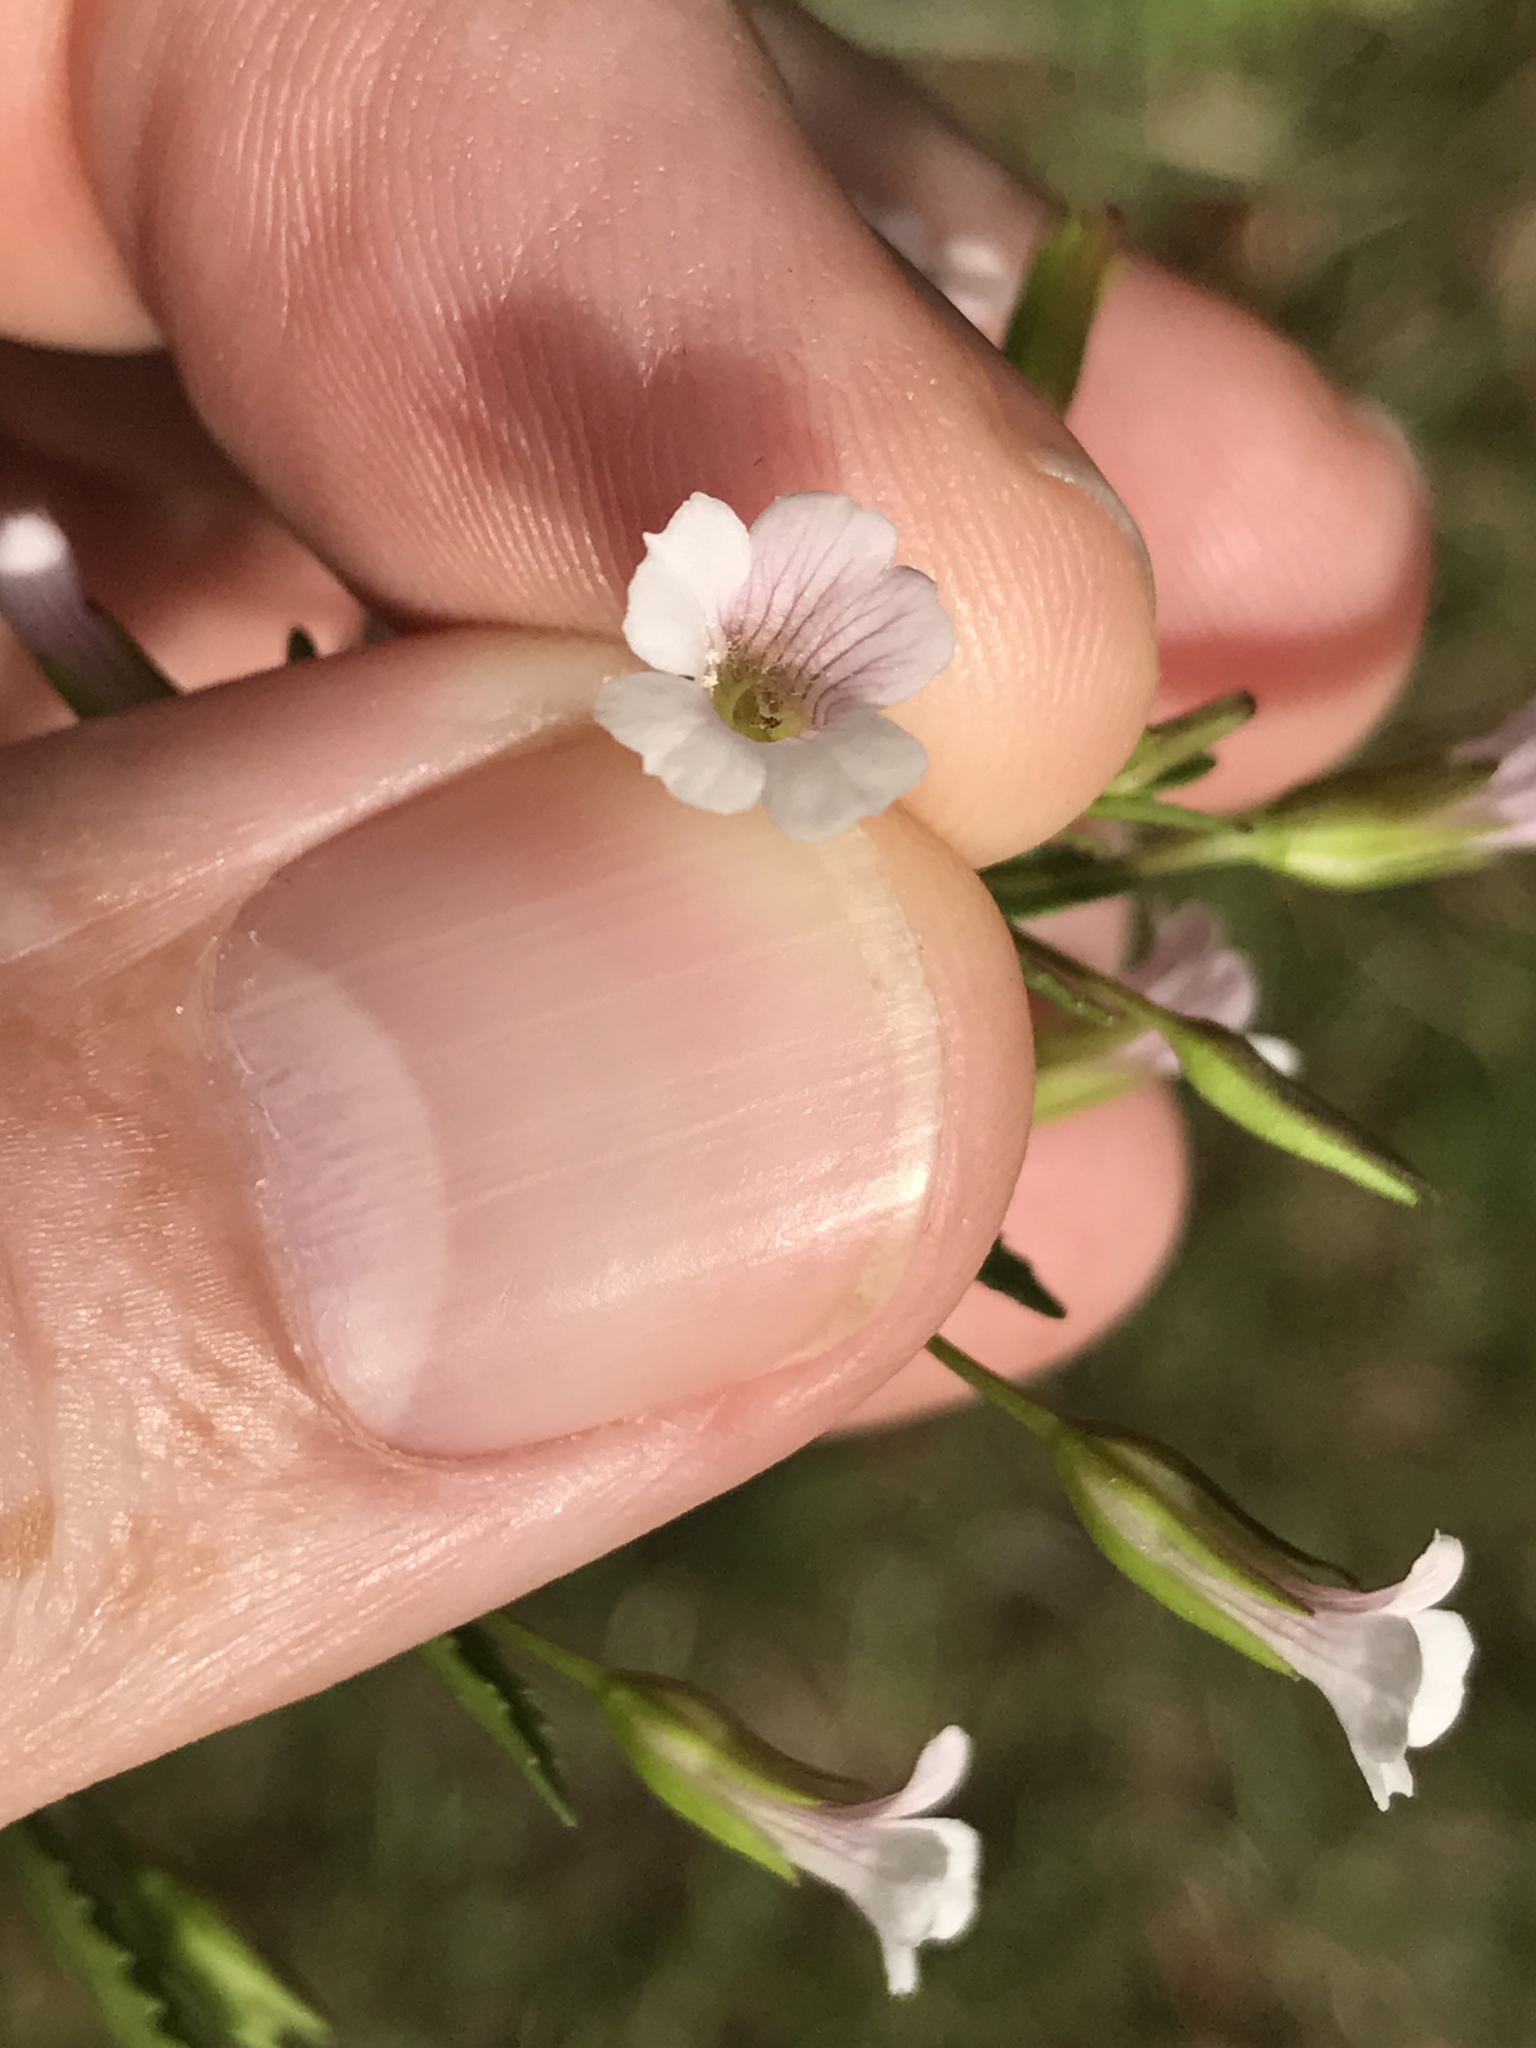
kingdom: Plantae
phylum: Tracheophyta
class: Magnoliopsida
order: Lamiales
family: Plantaginaceae
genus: Mecardonia
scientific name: Mecardonia acuminata
